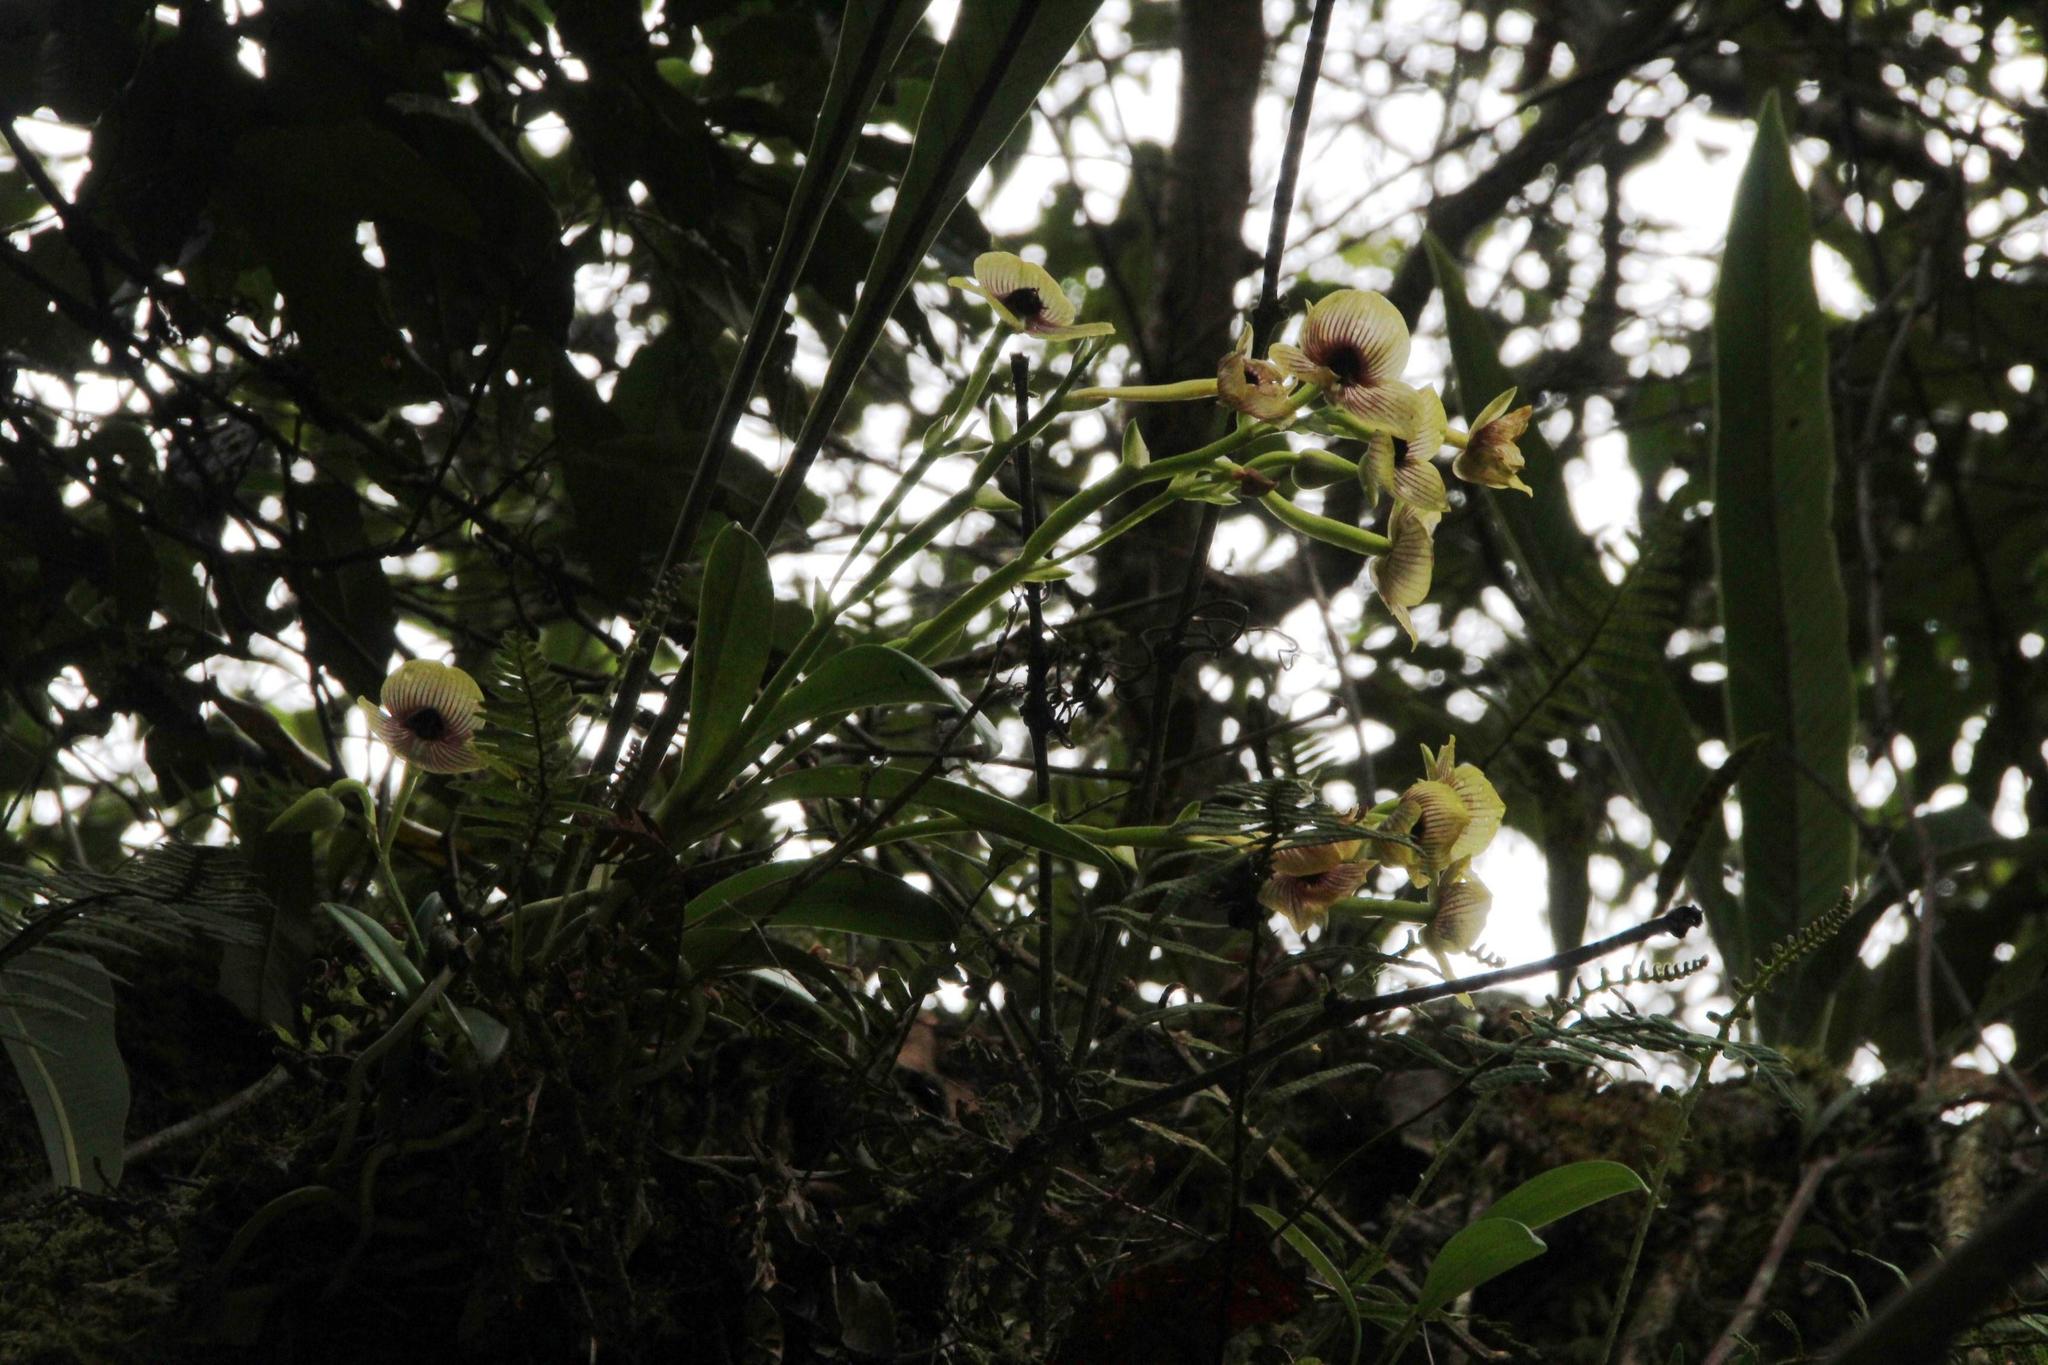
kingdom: Plantae
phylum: Tracheophyta
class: Liliopsida
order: Asparagales
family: Orchidaceae
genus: Telipogon
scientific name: Telipogon antisuyuensis
